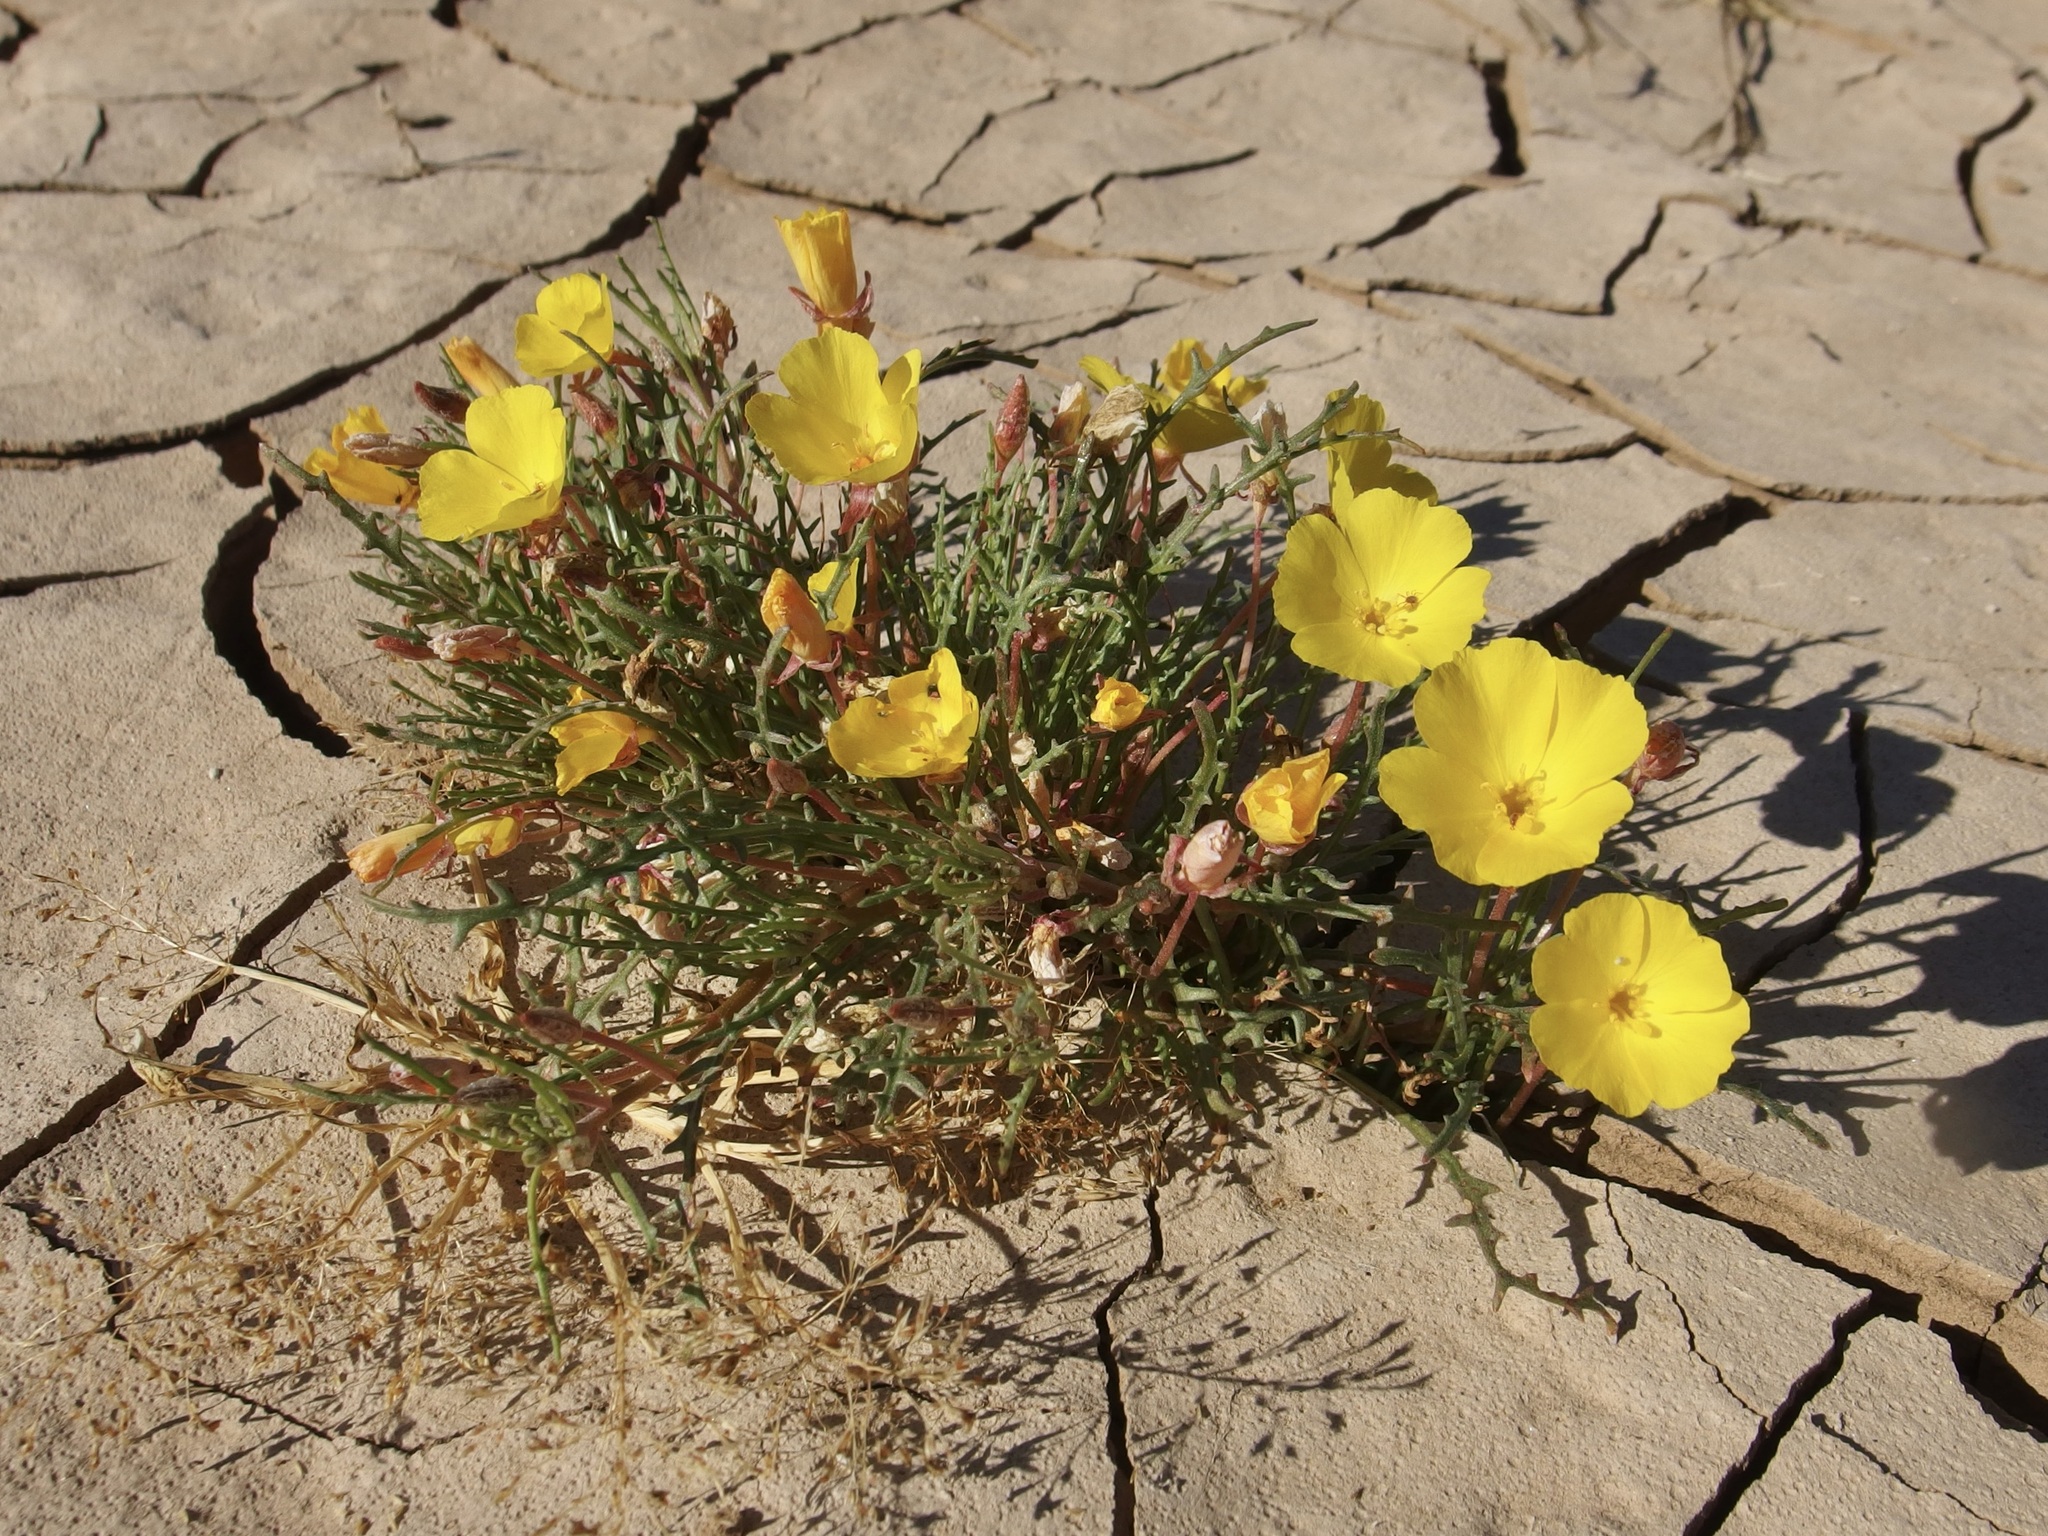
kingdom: Plantae
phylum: Tracheophyta
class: Magnoliopsida
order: Myrtales
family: Onagraceae
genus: Eulobus
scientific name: Eulobus sceptrostigma
